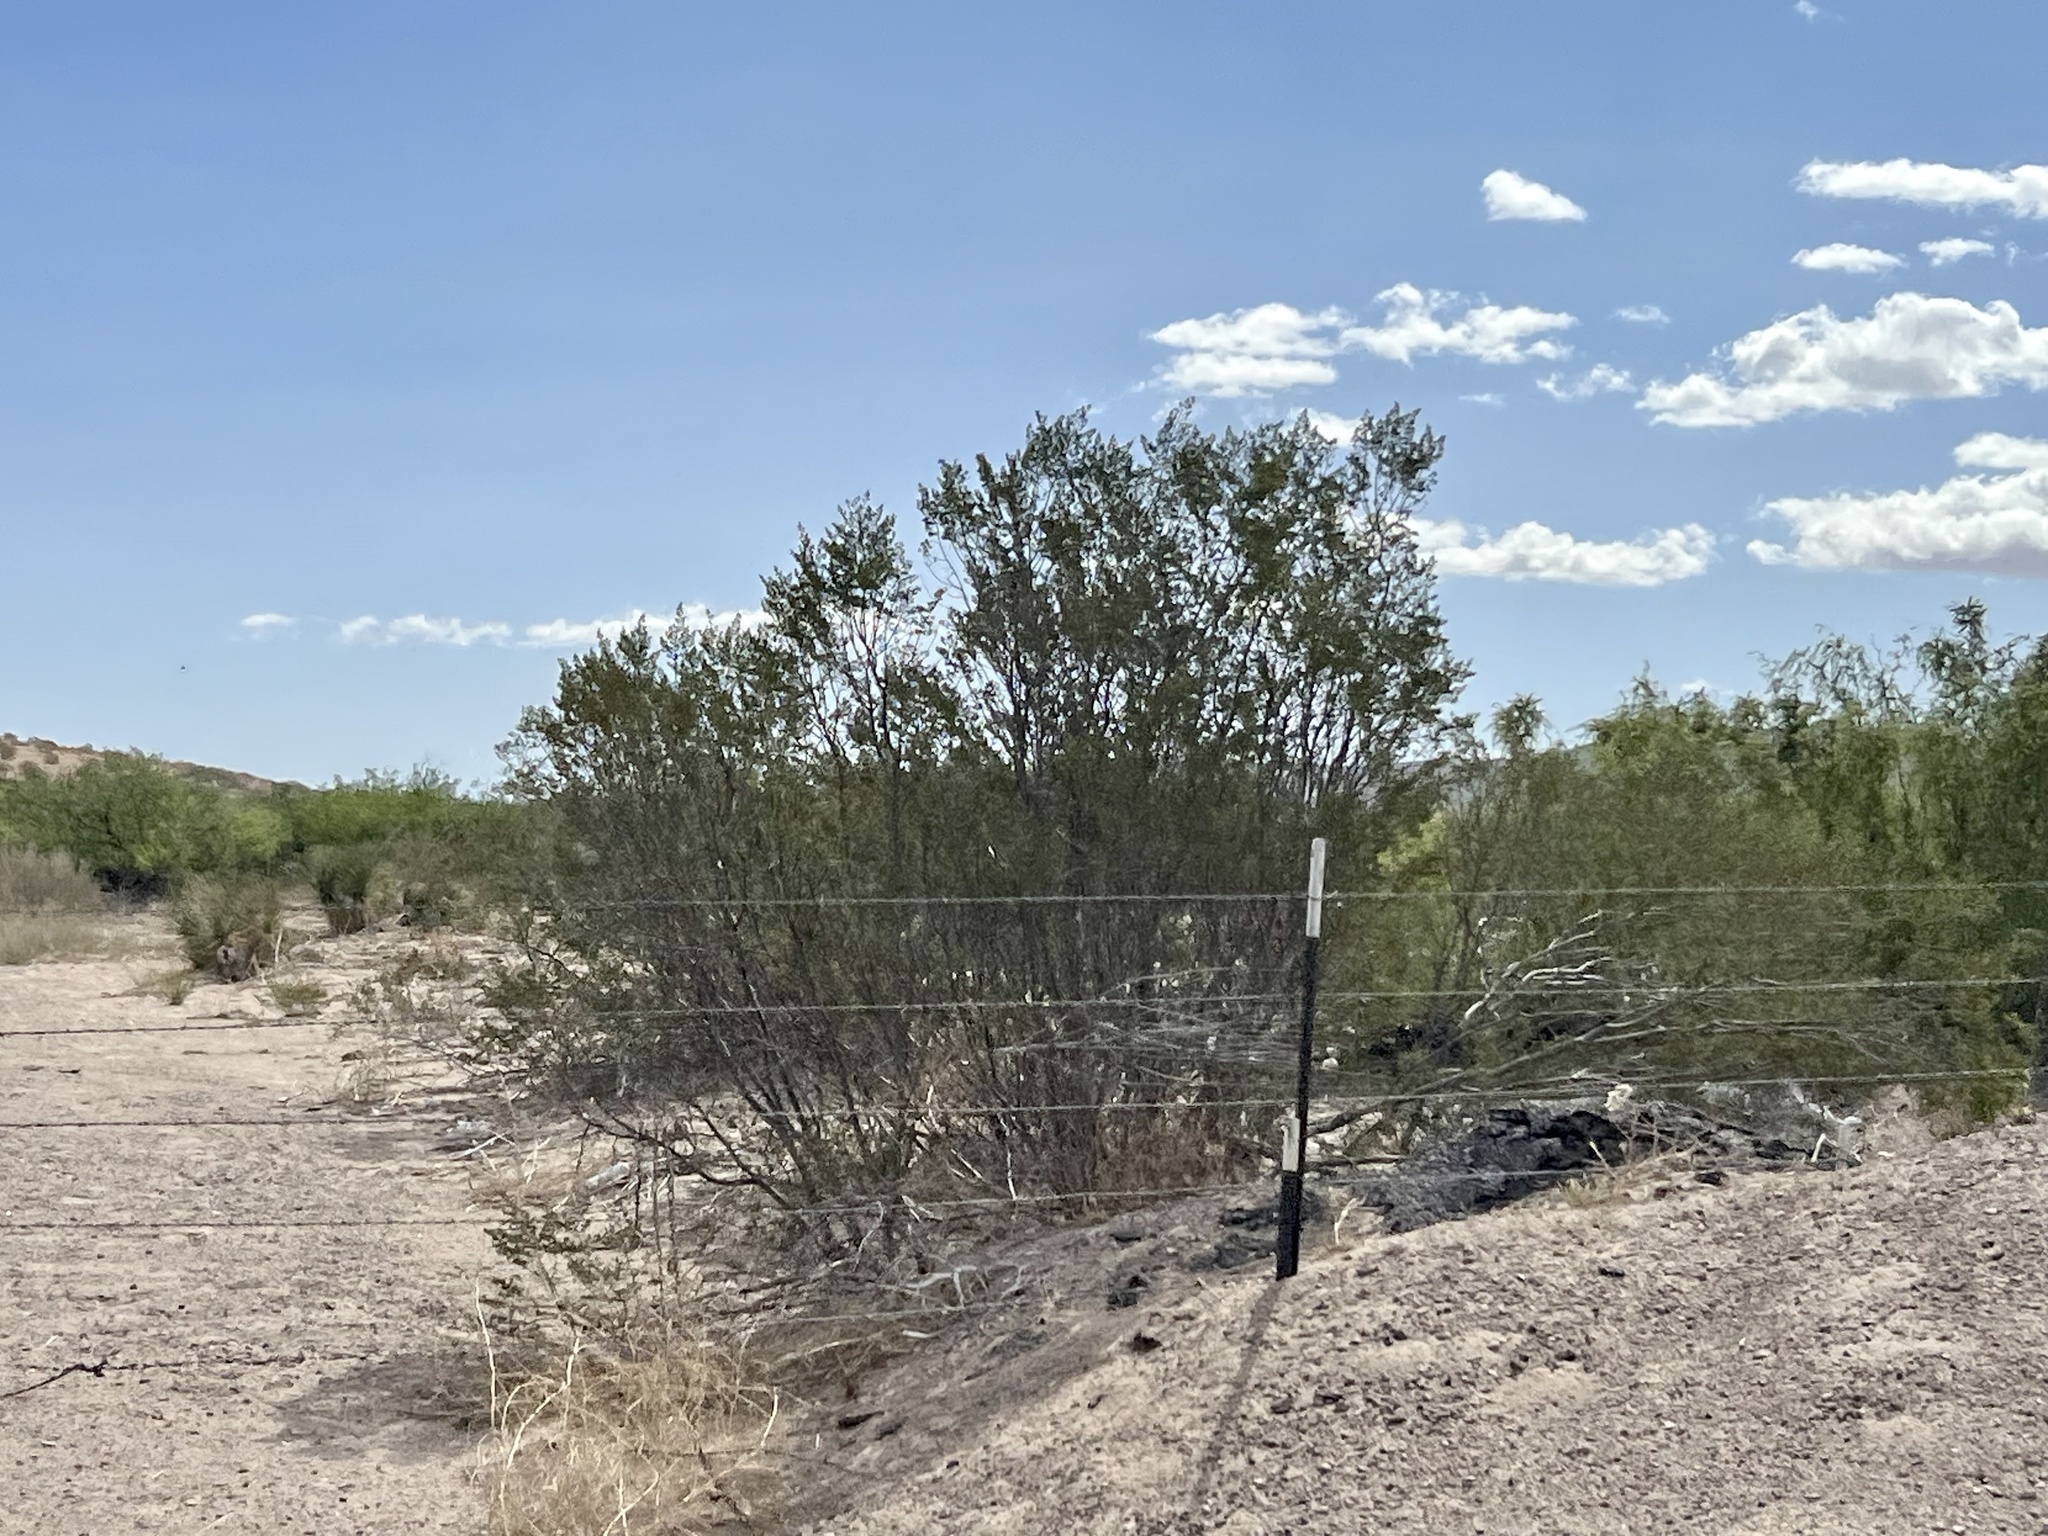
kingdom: Plantae
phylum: Tracheophyta
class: Magnoliopsida
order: Zygophyllales
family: Zygophyllaceae
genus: Larrea
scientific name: Larrea tridentata
